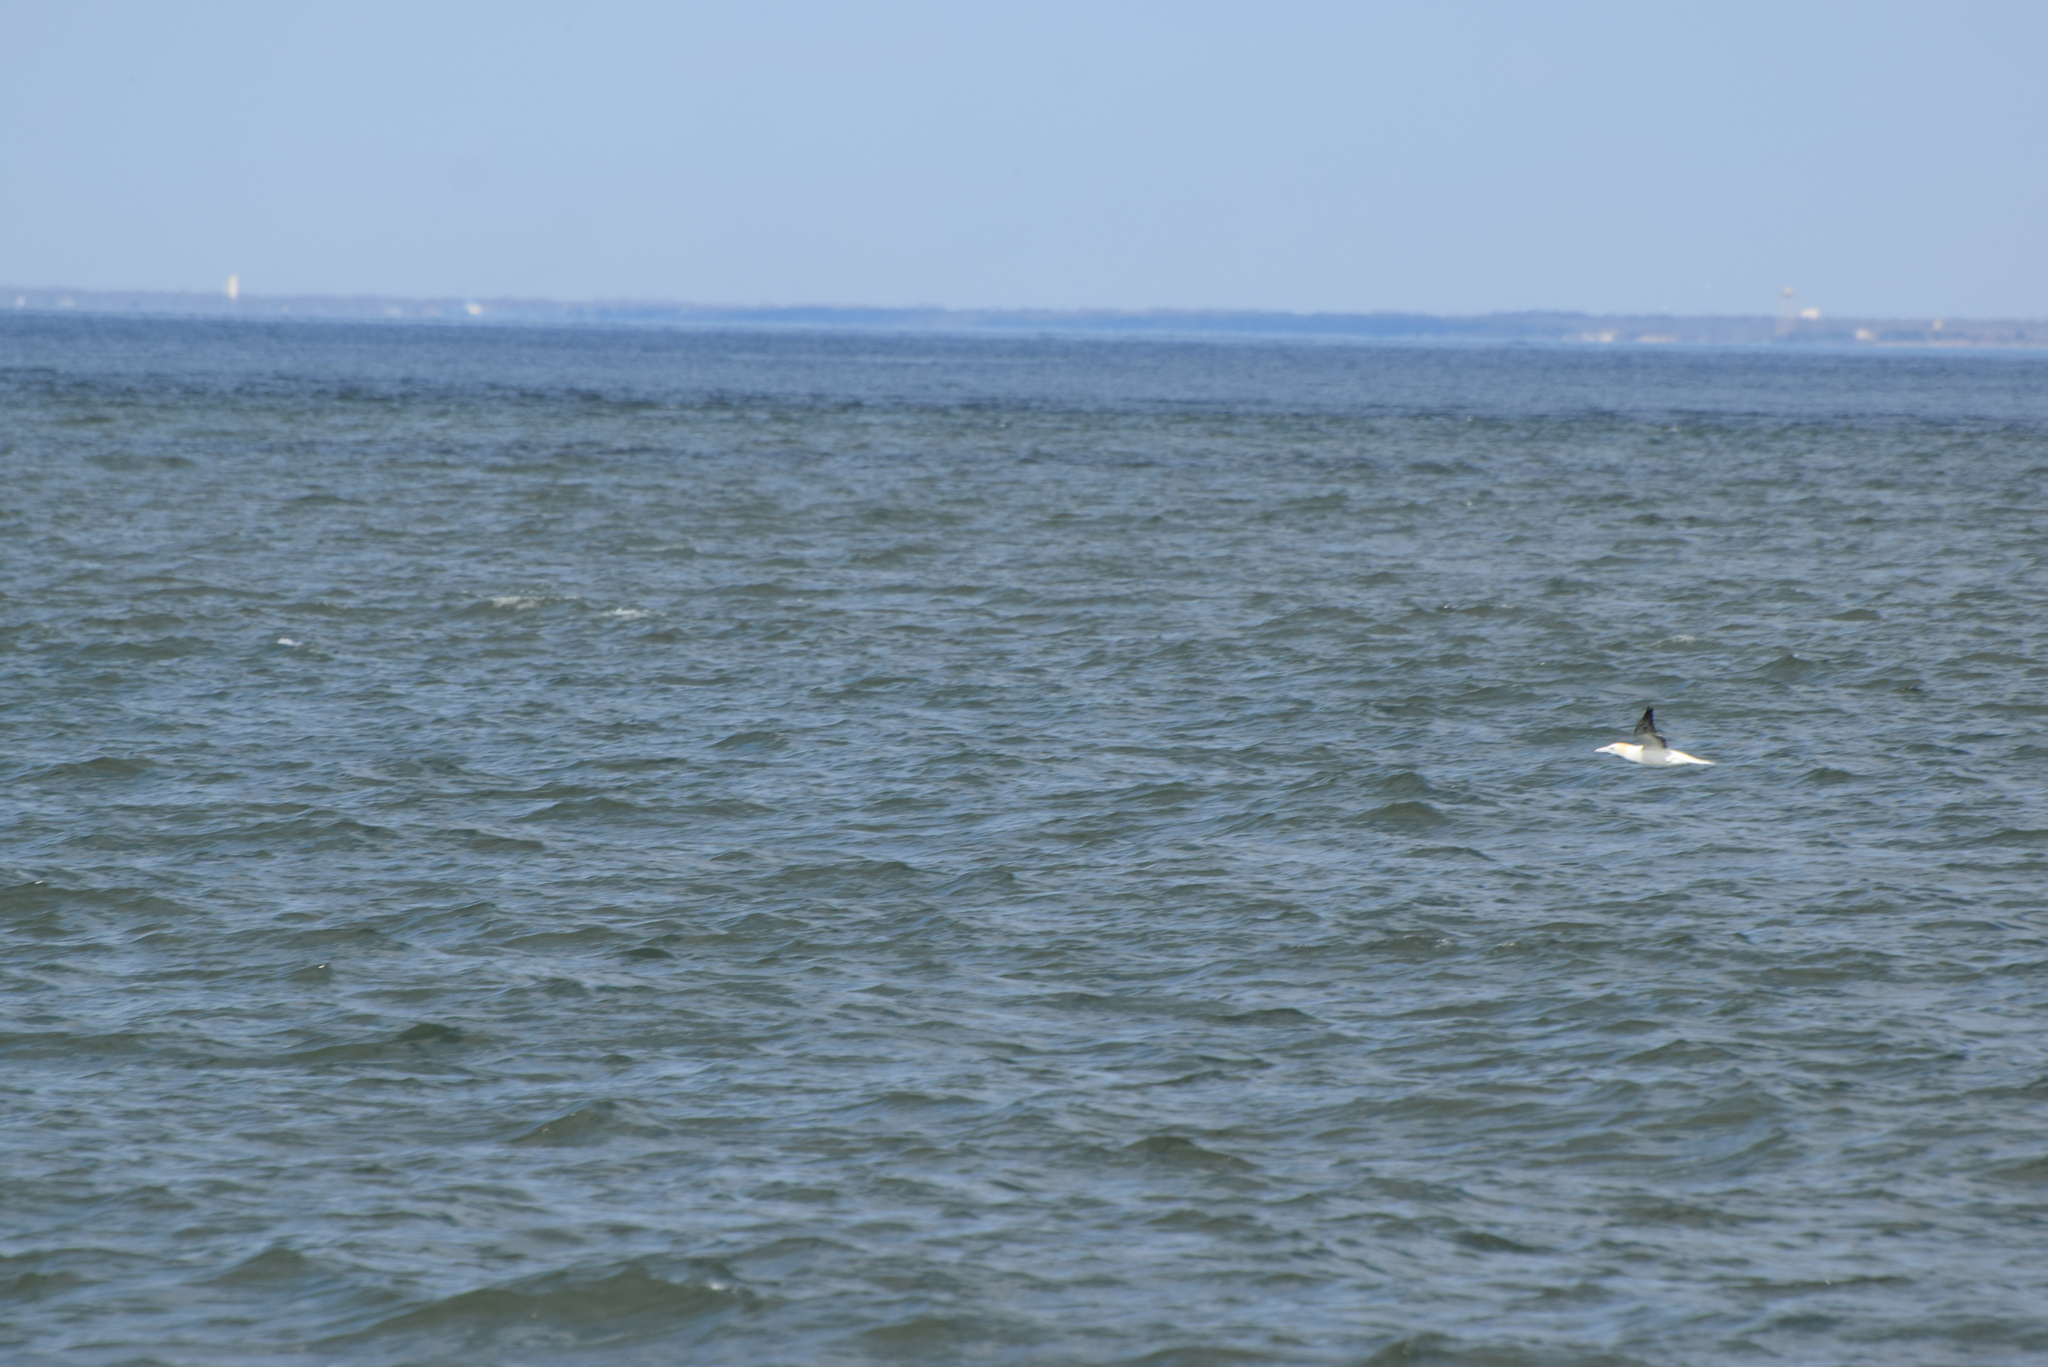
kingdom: Animalia
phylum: Chordata
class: Aves
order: Suliformes
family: Sulidae
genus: Morus
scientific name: Morus bassanus
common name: Northern gannet
